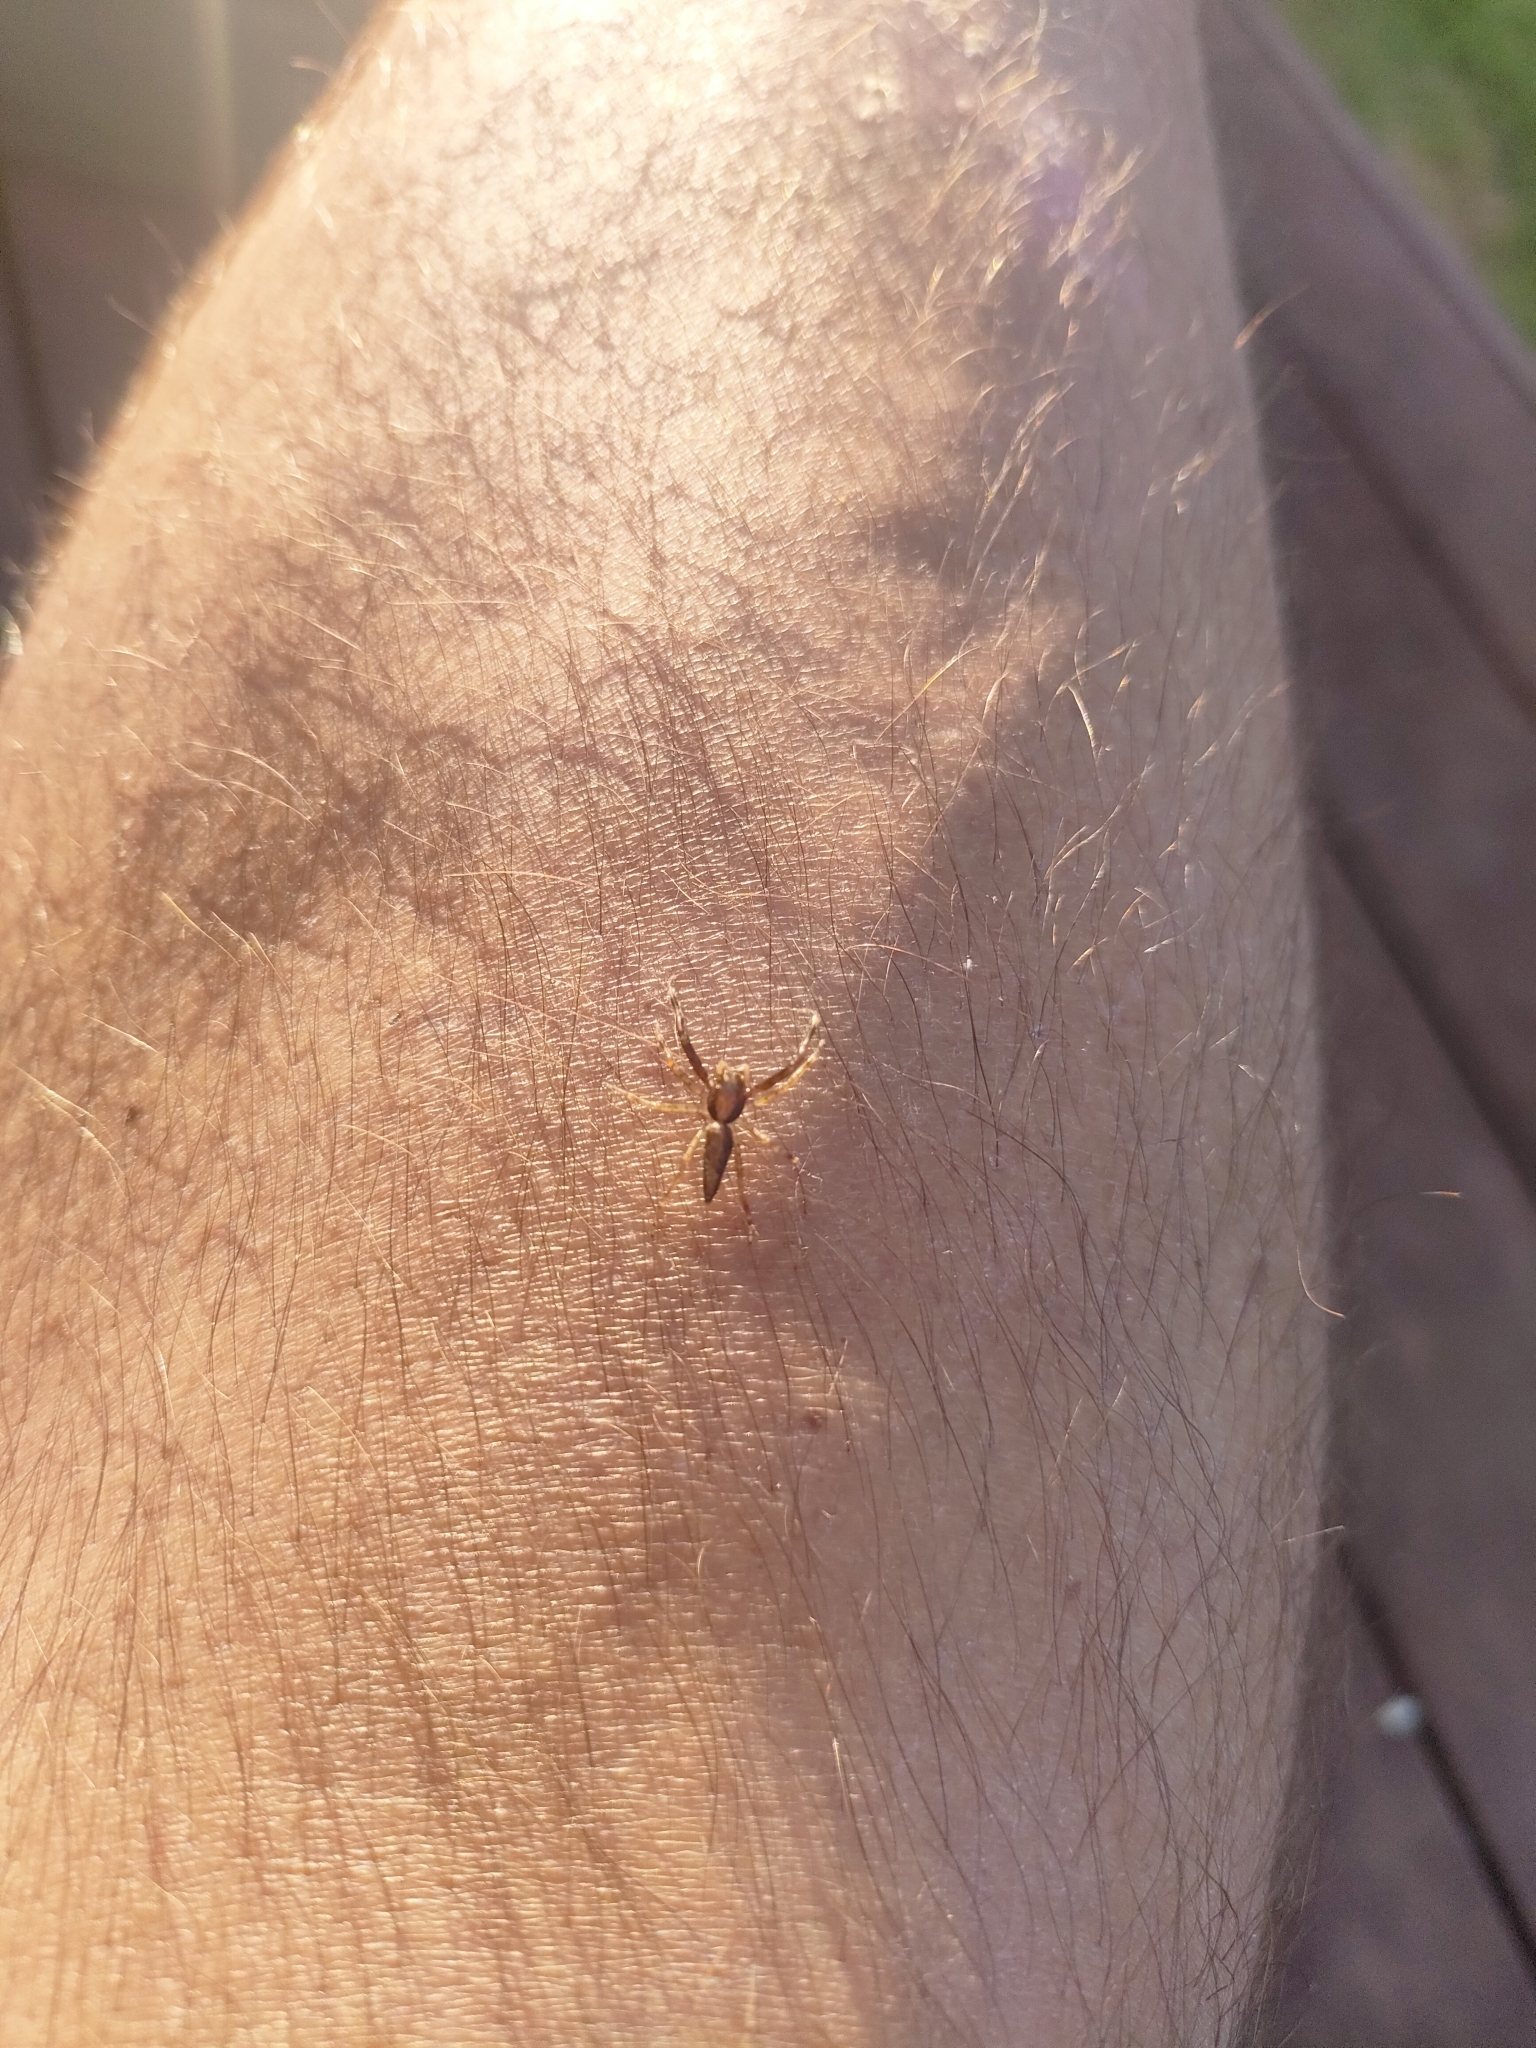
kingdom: Animalia
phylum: Arthropoda
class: Arachnida
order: Araneae
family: Salticidae
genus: Helpis
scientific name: Helpis minitabunda
